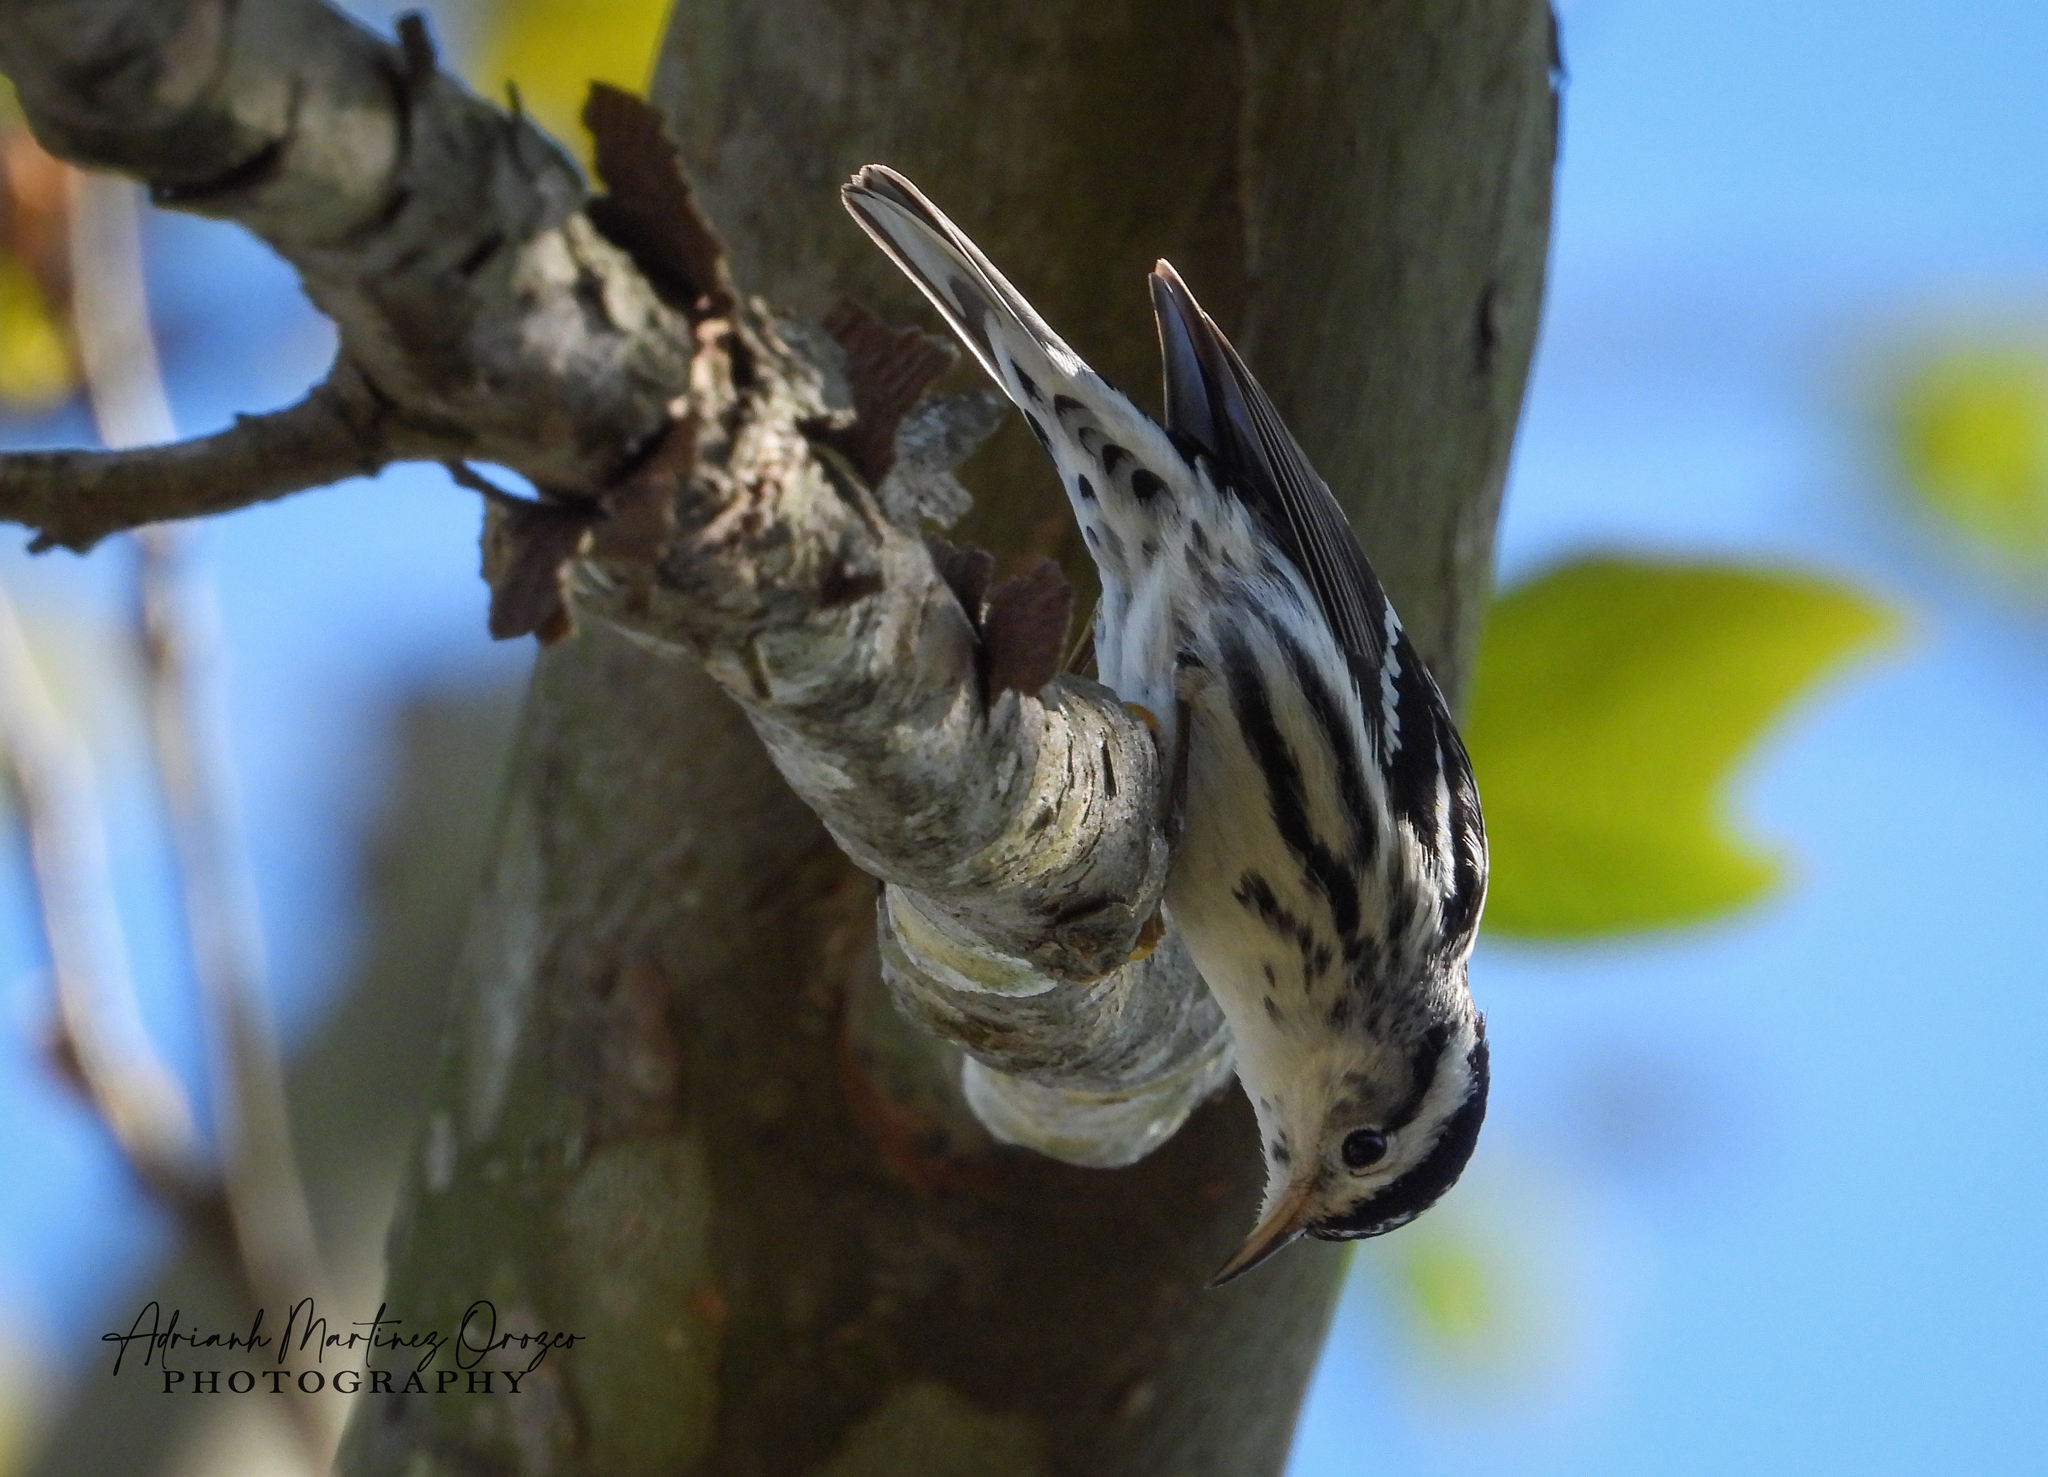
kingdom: Animalia
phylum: Chordata
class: Aves
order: Passeriformes
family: Parulidae
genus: Mniotilta
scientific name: Mniotilta varia
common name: Black-and-white warbler
